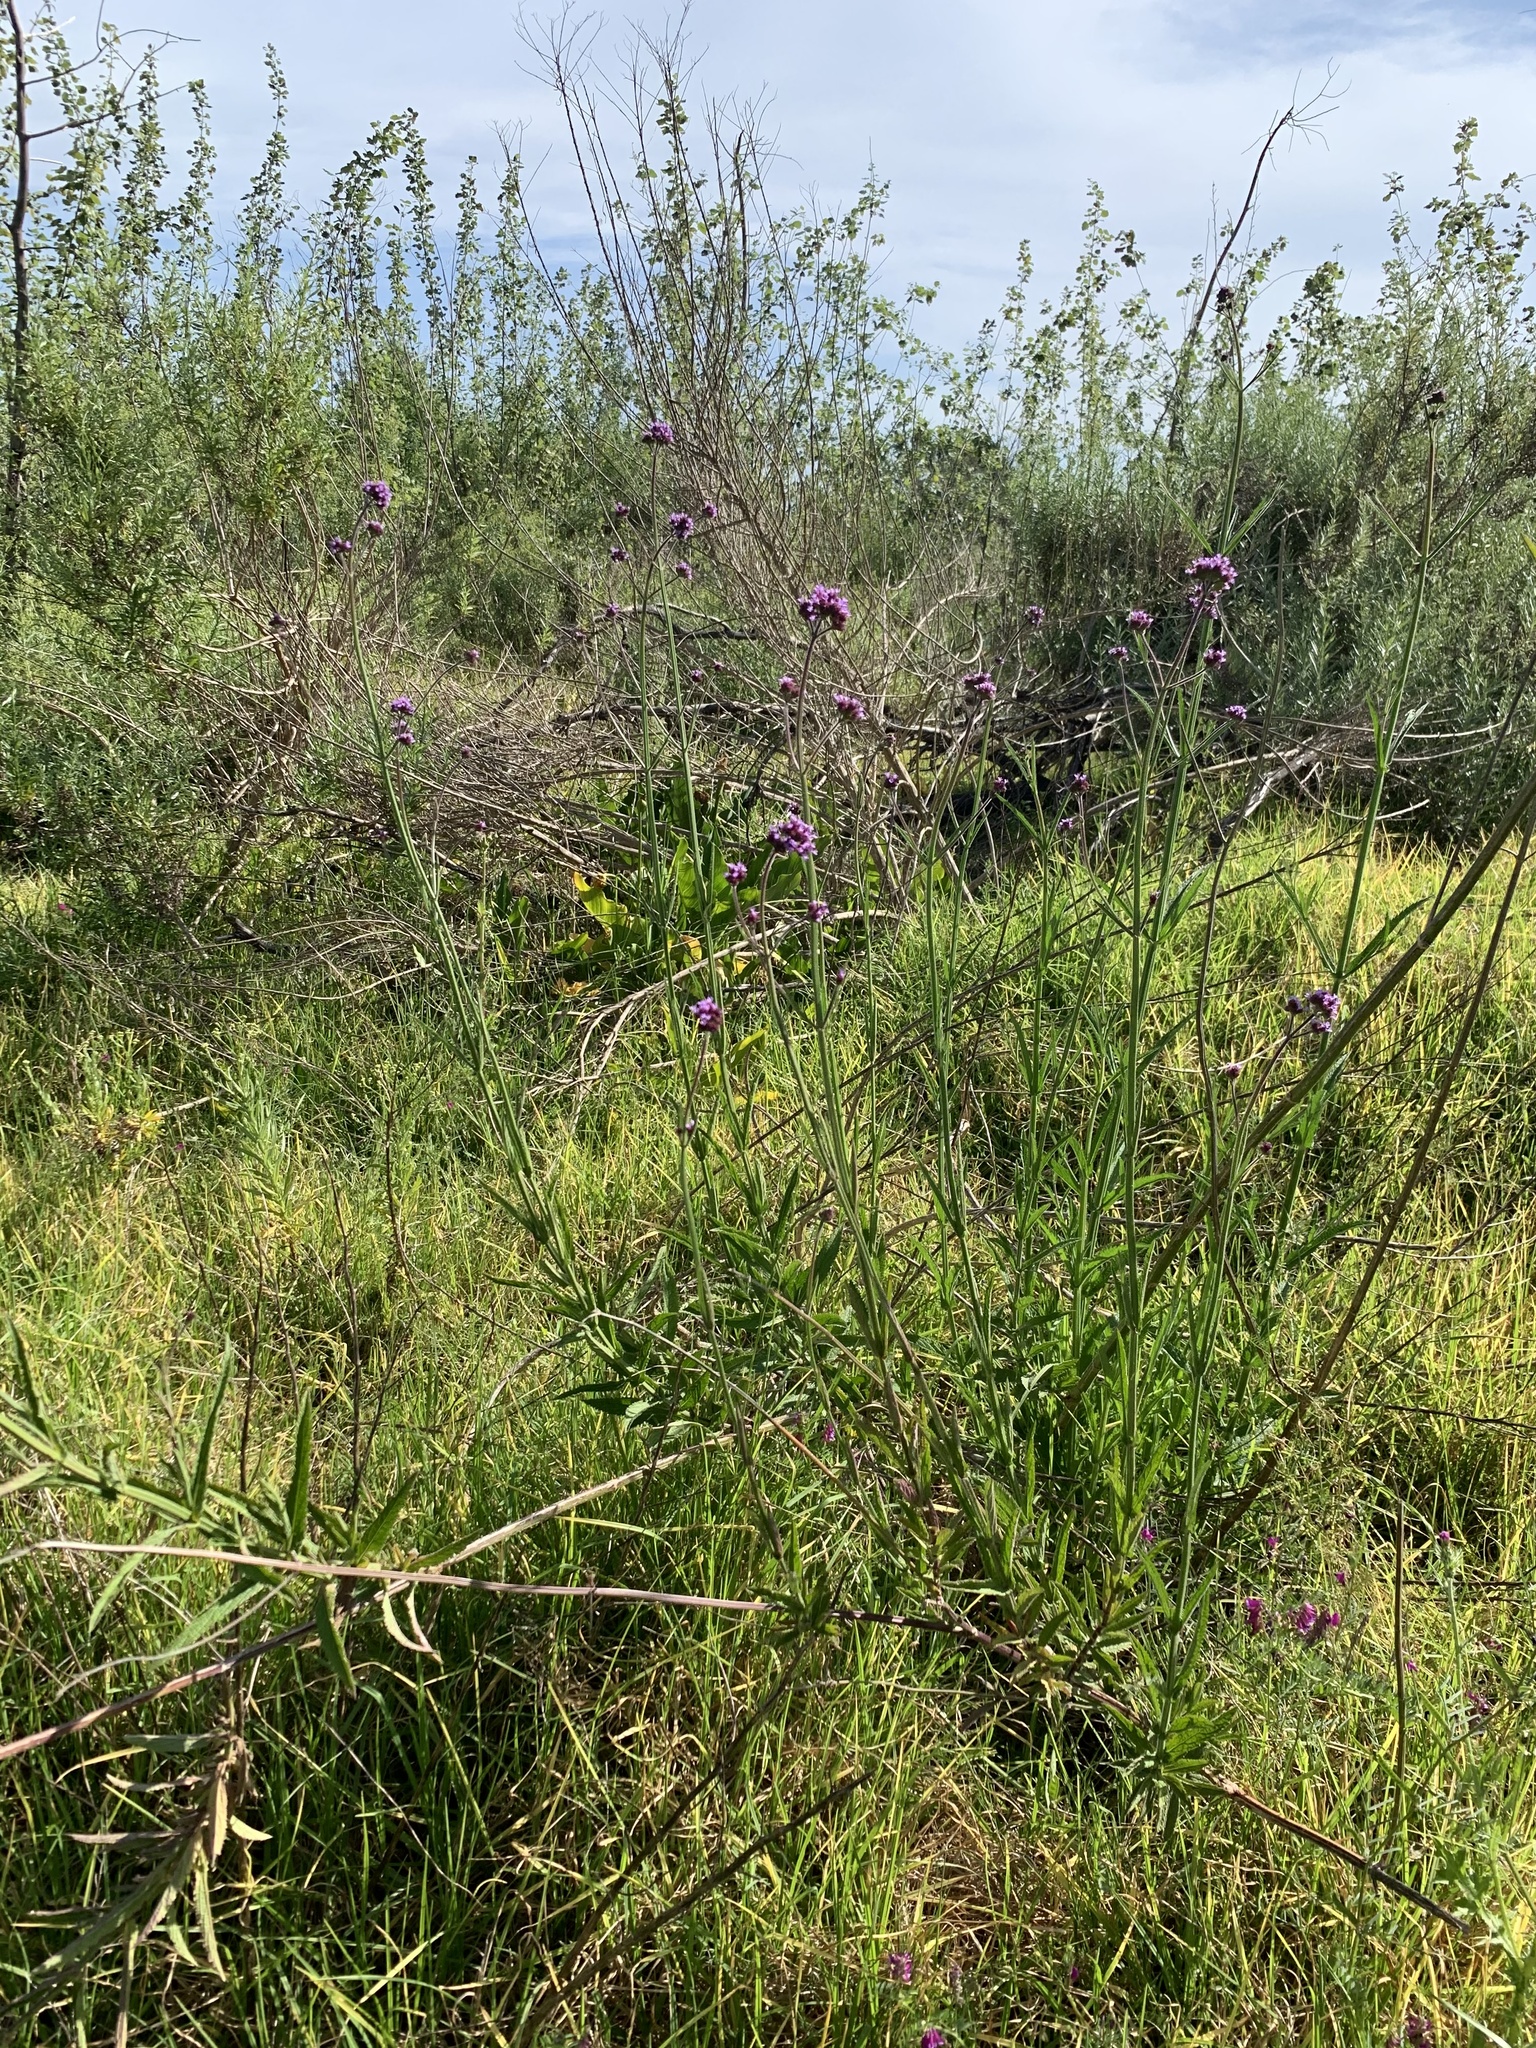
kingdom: Plantae
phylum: Tracheophyta
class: Magnoliopsida
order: Lamiales
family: Verbenaceae
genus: Verbena
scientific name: Verbena bonariensis
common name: Purpletop vervain
